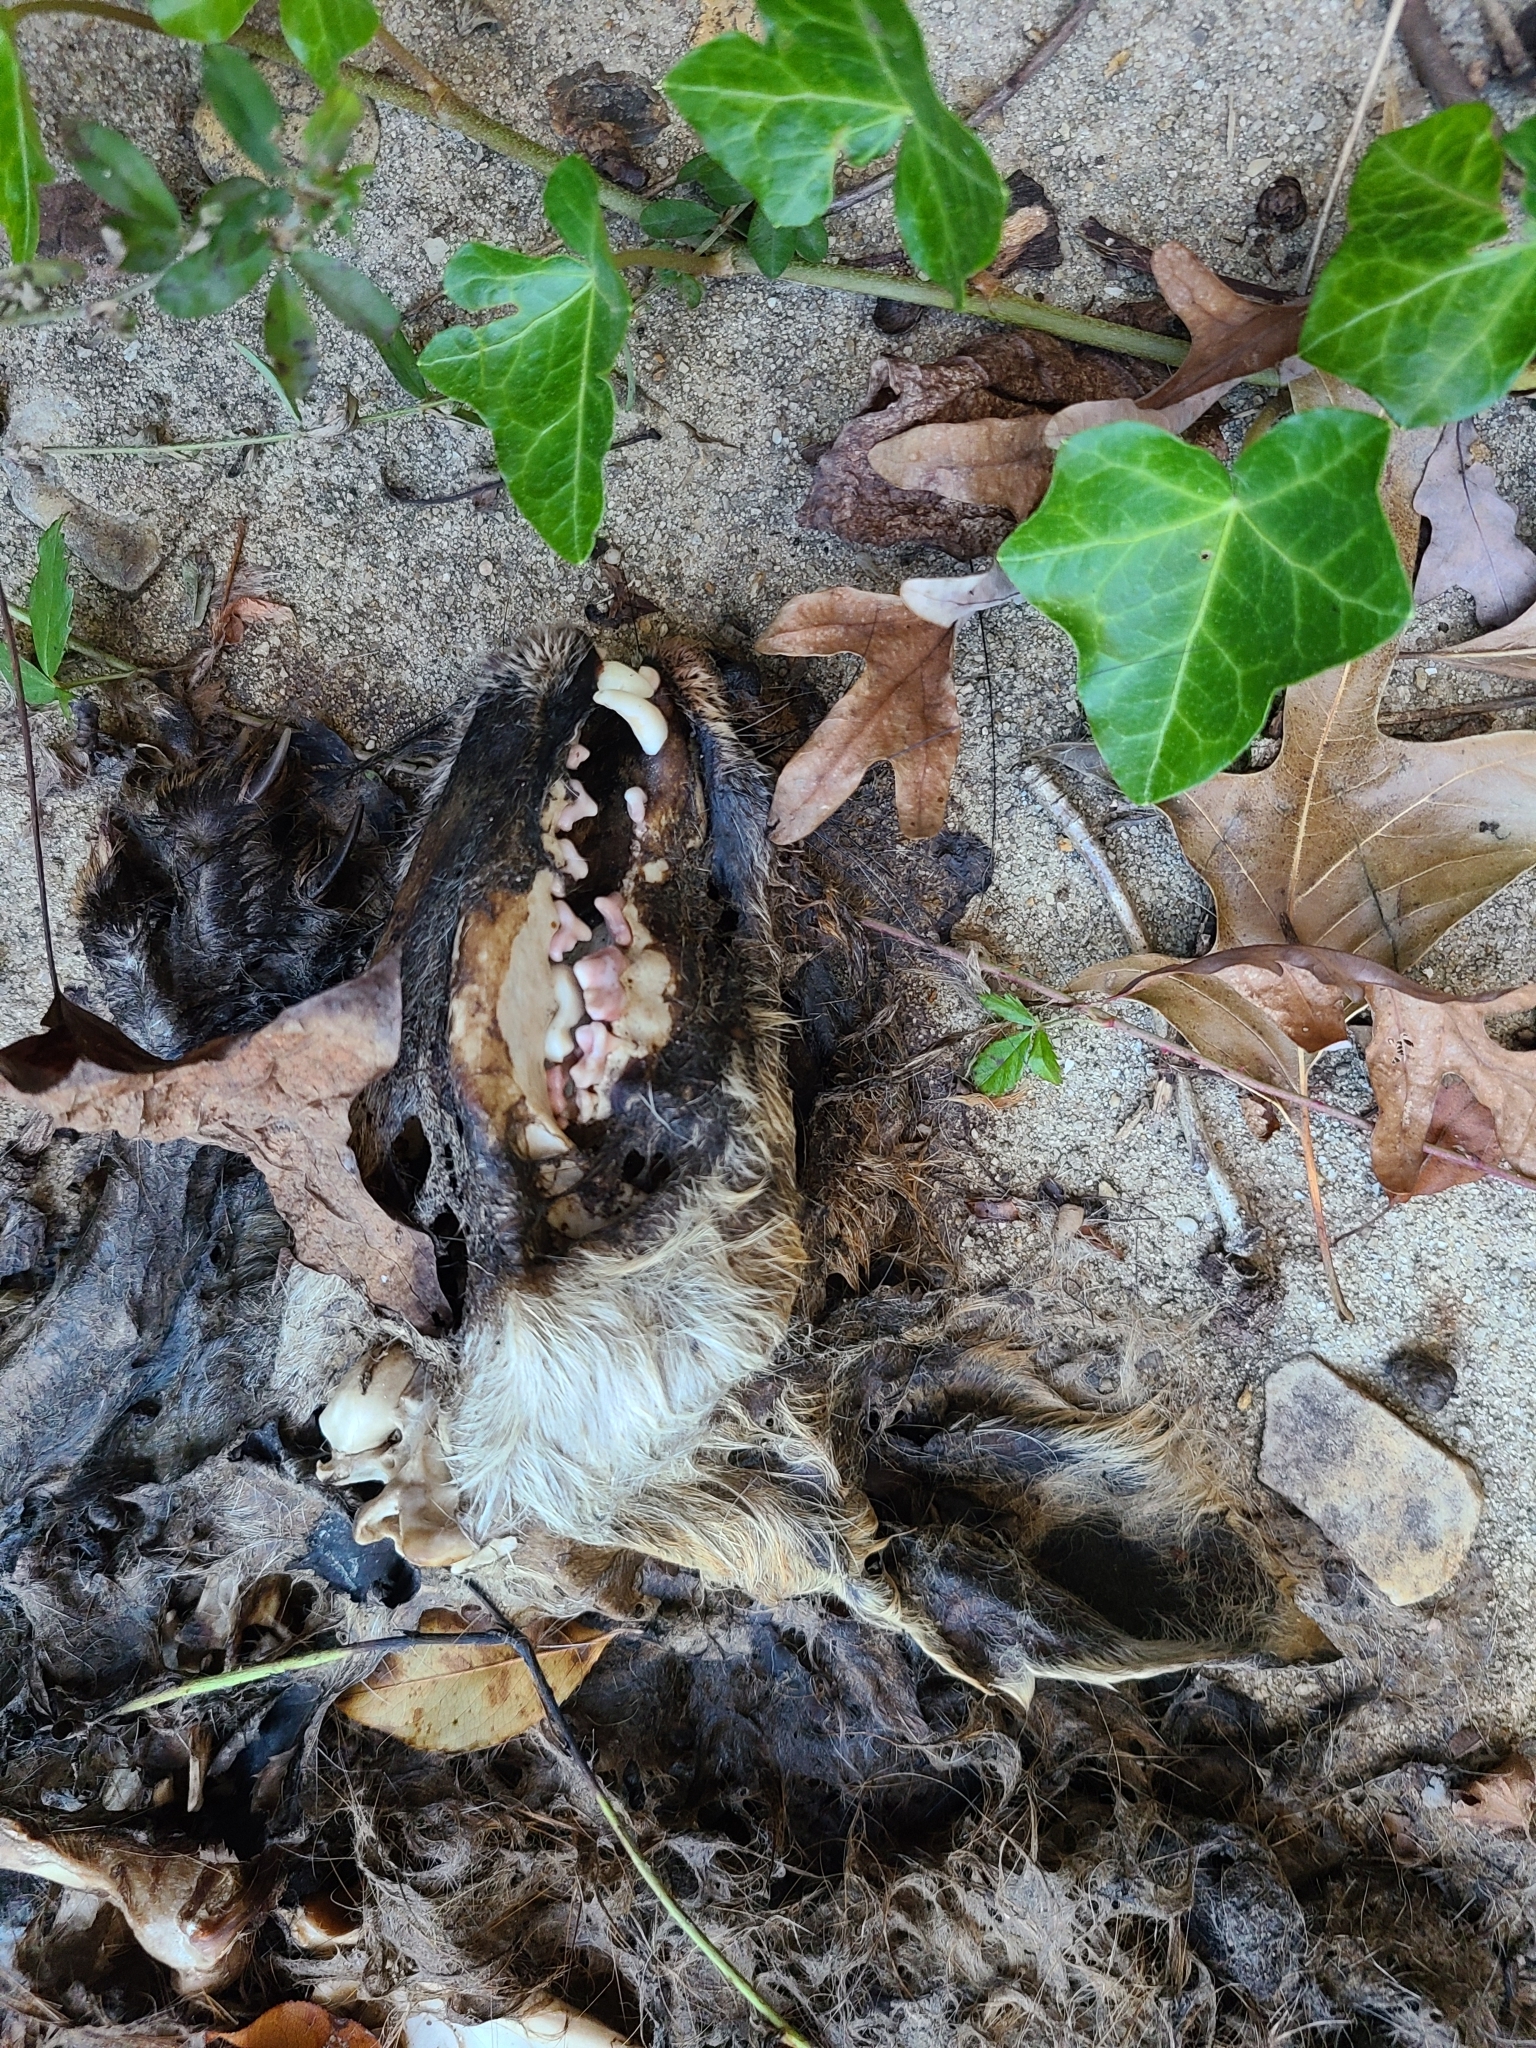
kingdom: Animalia
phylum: Chordata
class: Mammalia
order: Carnivora
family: Canidae
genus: Vulpes
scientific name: Vulpes vulpes
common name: Red fox
